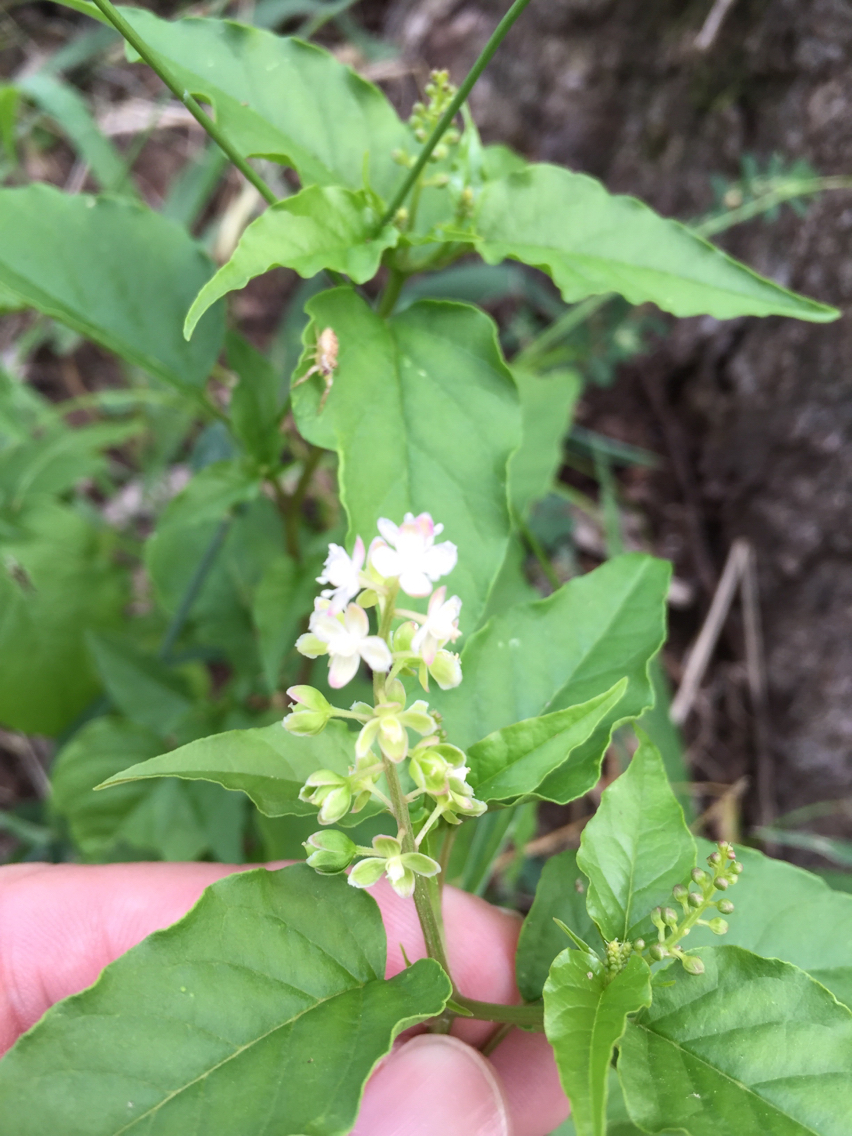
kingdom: Plantae
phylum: Tracheophyta
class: Magnoliopsida
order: Caryophyllales
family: Phytolaccaceae
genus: Rivina
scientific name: Rivina humilis
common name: Rougeplant
